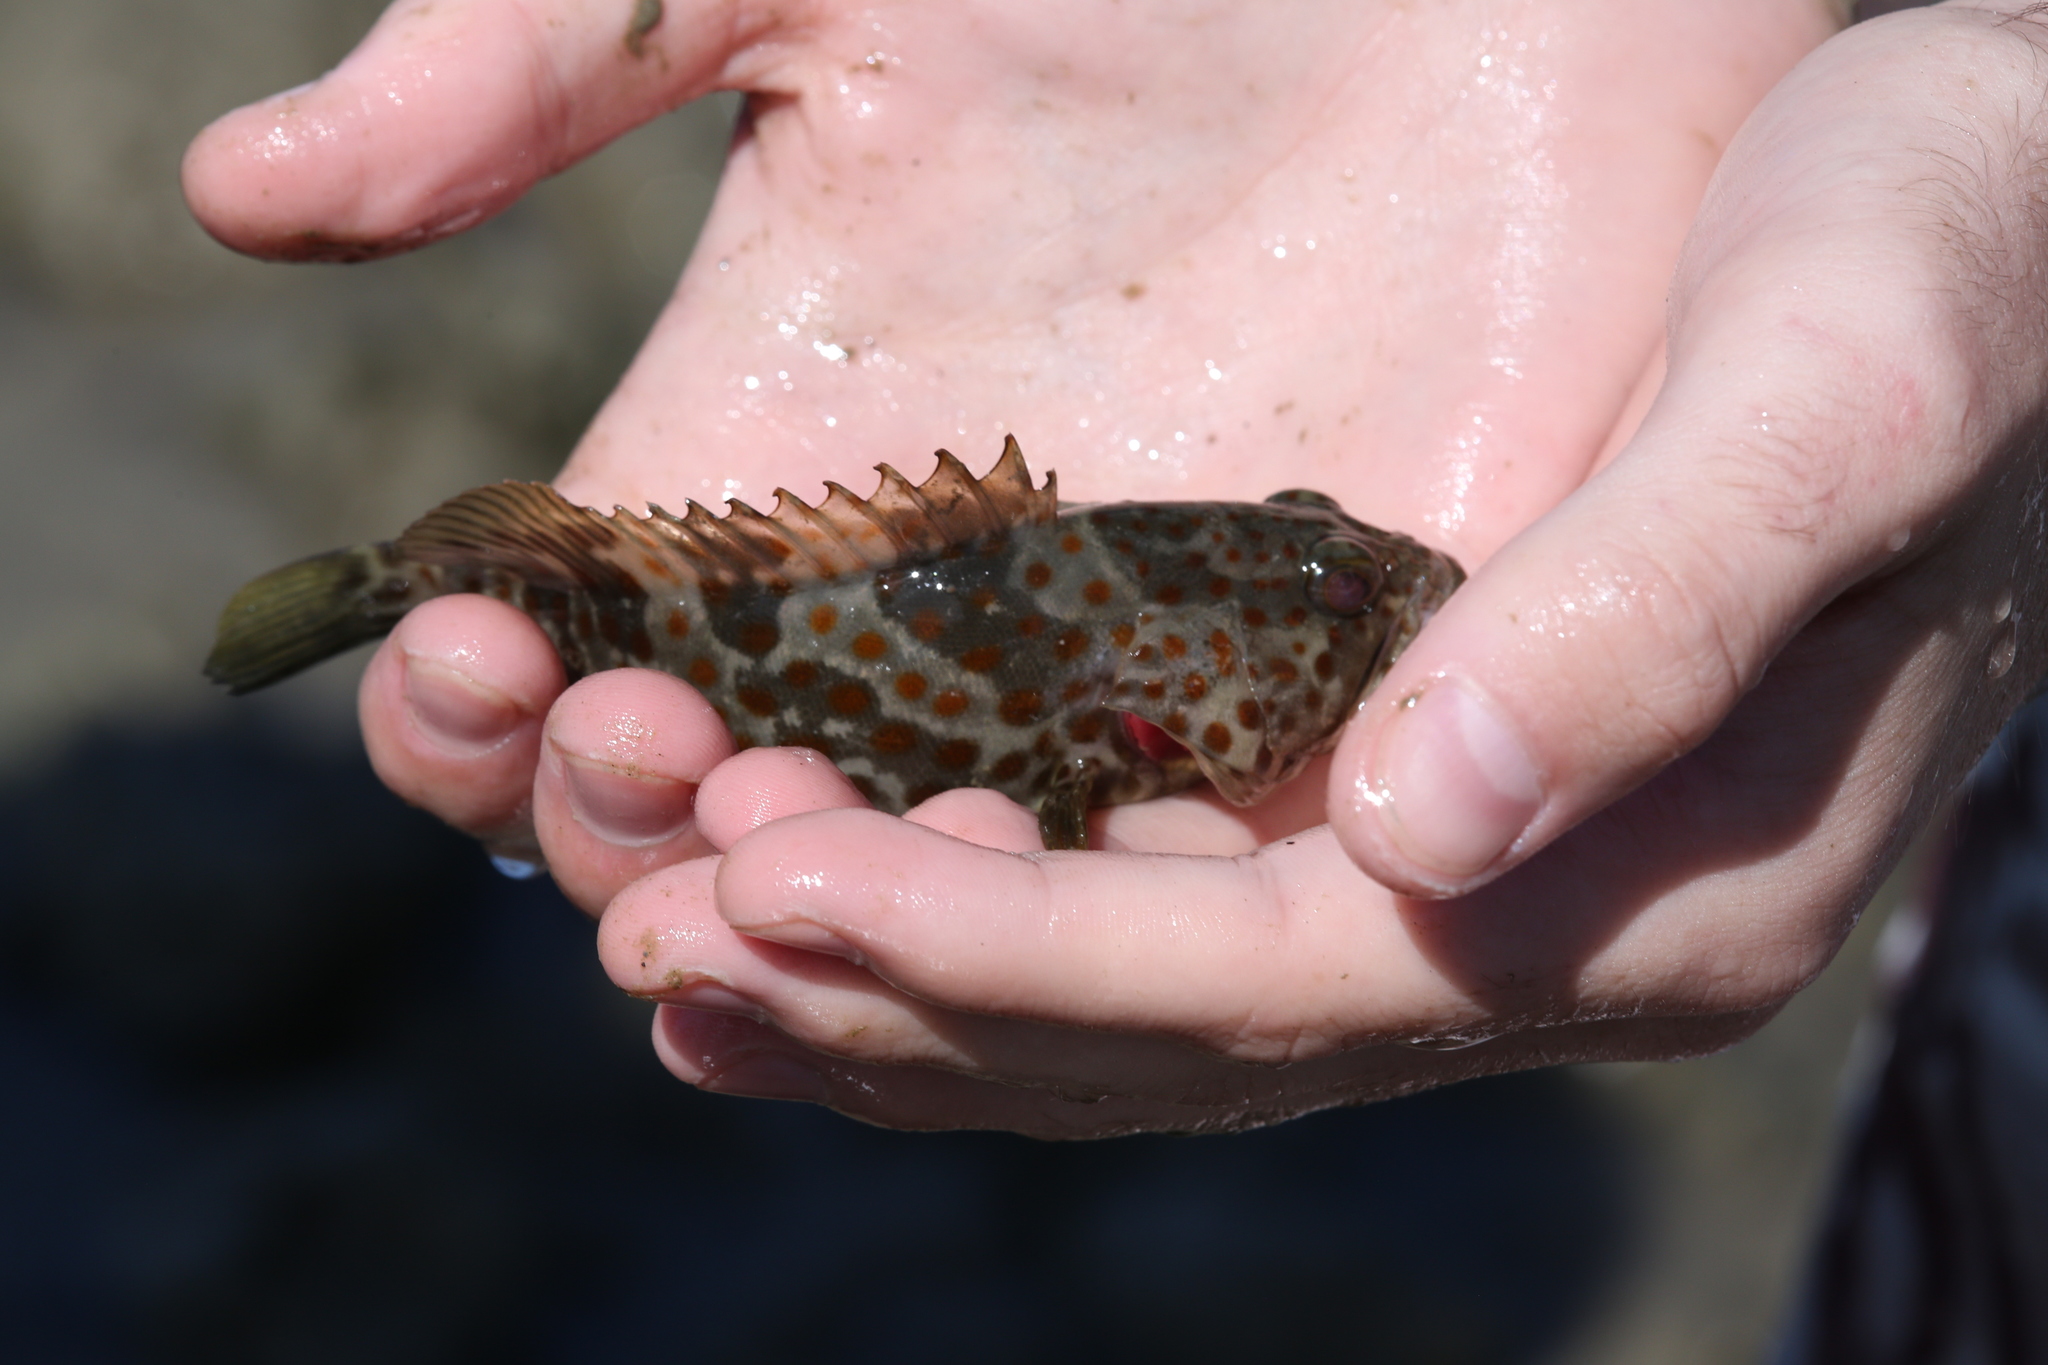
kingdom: Animalia
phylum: Chordata
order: Perciformes
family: Serranidae
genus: Epinephelus
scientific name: Epinephelus coioides
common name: Orange-spotted grouper
